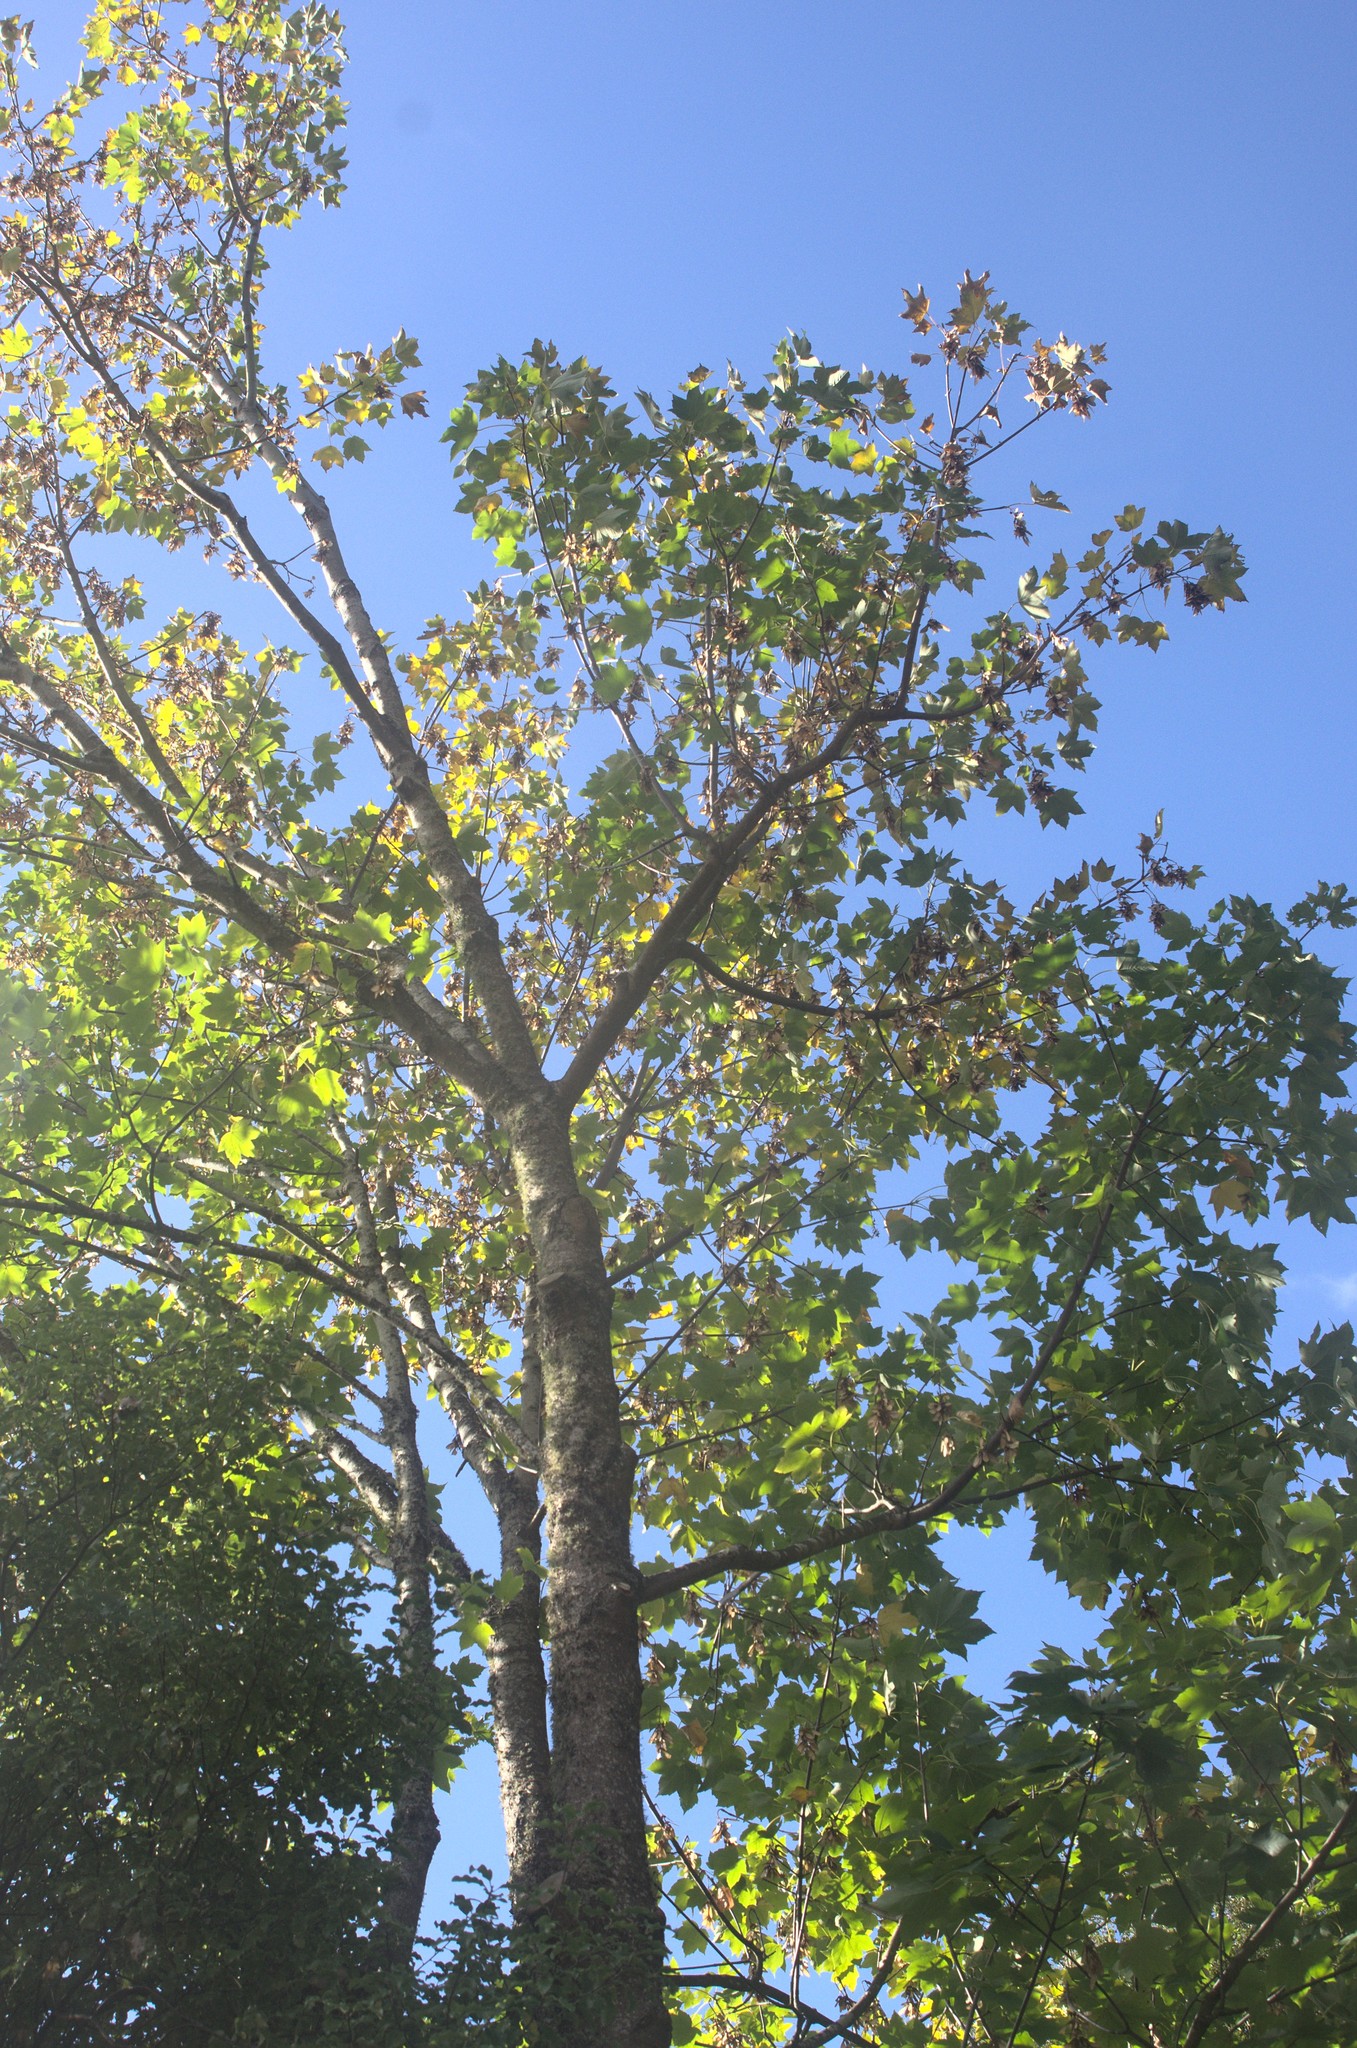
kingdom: Plantae
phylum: Tracheophyta
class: Magnoliopsida
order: Sapindales
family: Sapindaceae
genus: Acer
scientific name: Acer pseudoplatanus
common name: Sycamore
